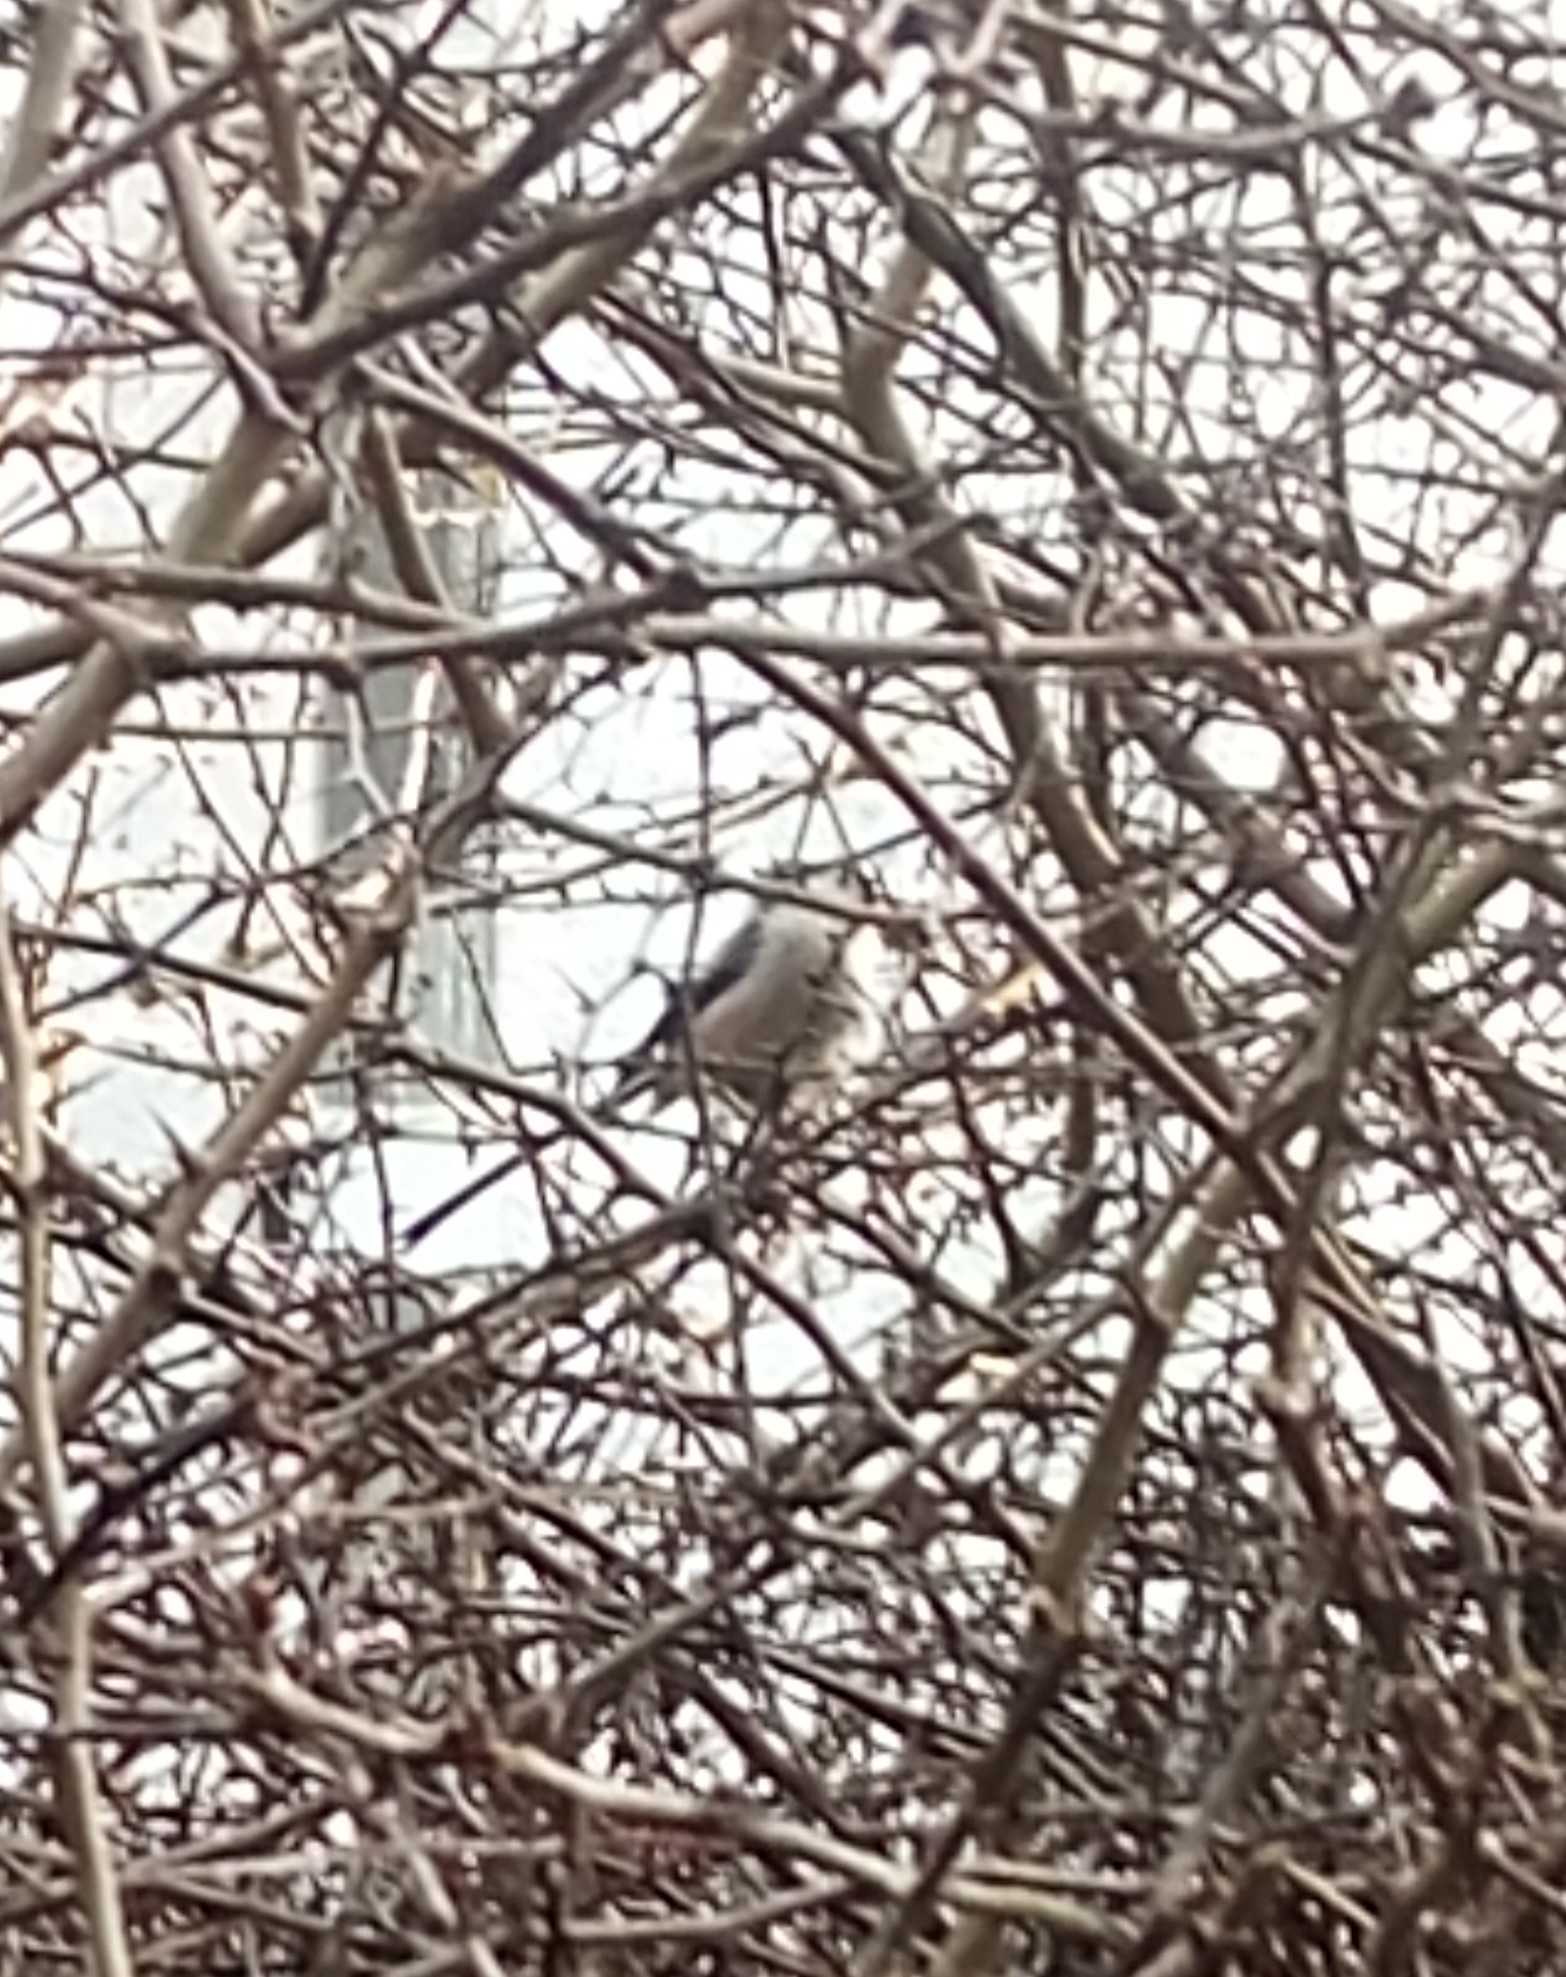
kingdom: Animalia
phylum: Chordata
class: Aves
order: Passeriformes
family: Aegithalidae
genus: Aegithalos
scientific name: Aegithalos caudatus
